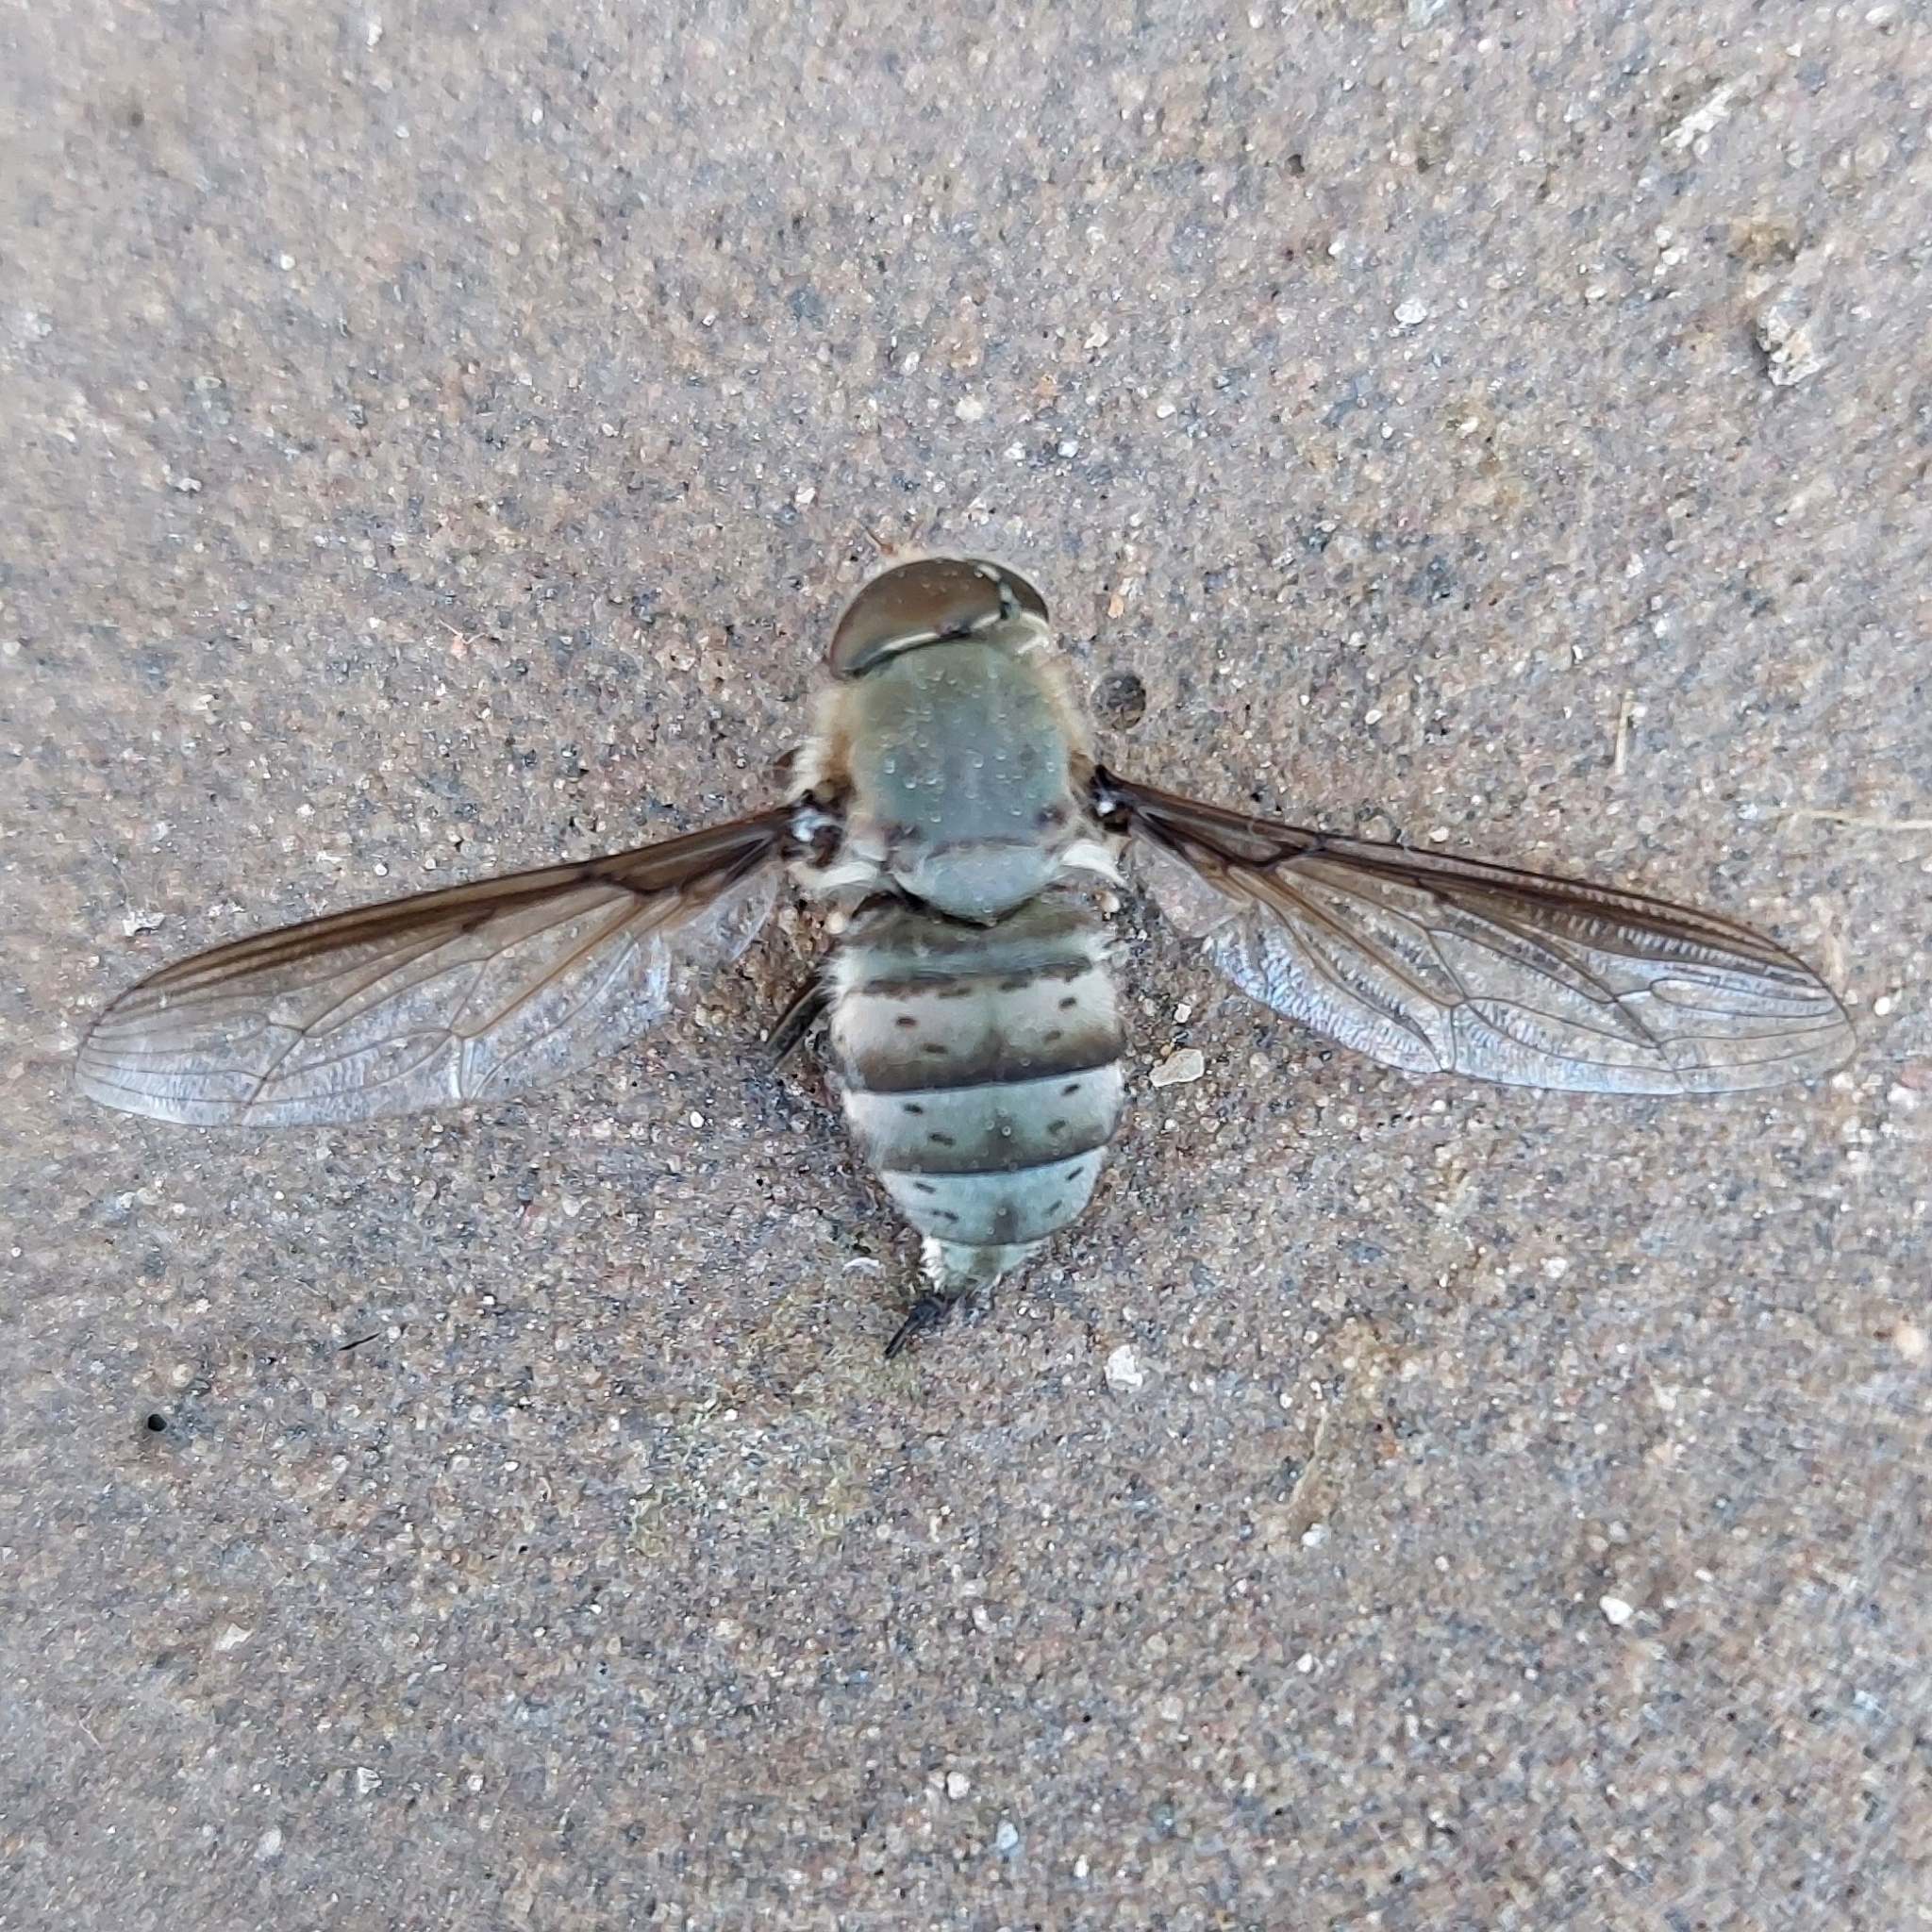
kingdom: Animalia
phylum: Arthropoda
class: Insecta
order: Diptera
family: Nemestrinidae
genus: Hirmoneura
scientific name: Hirmoneura ester
